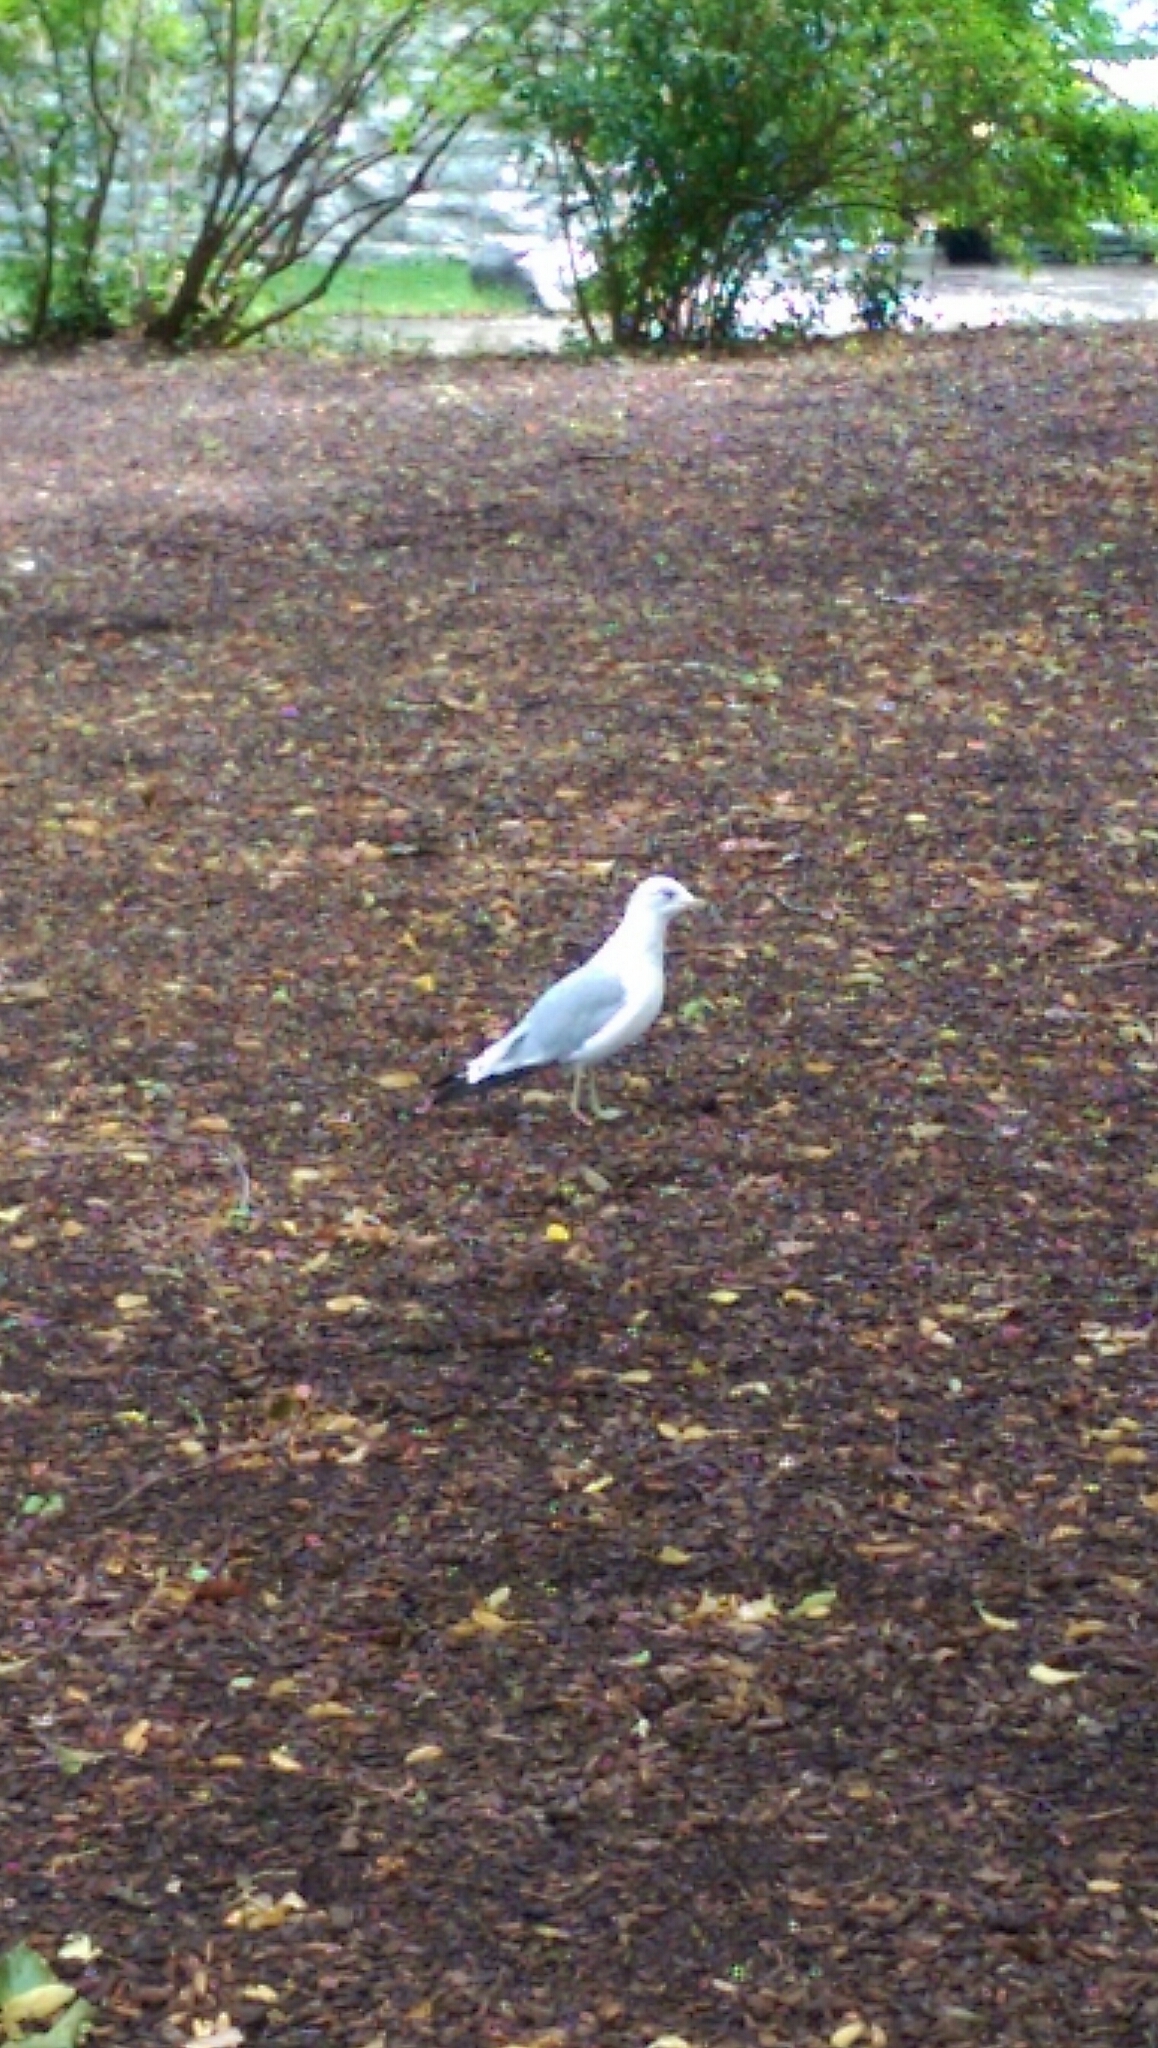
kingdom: Animalia
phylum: Chordata
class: Aves
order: Charadriiformes
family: Laridae
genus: Larus
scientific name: Larus delawarensis
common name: Ring-billed gull
